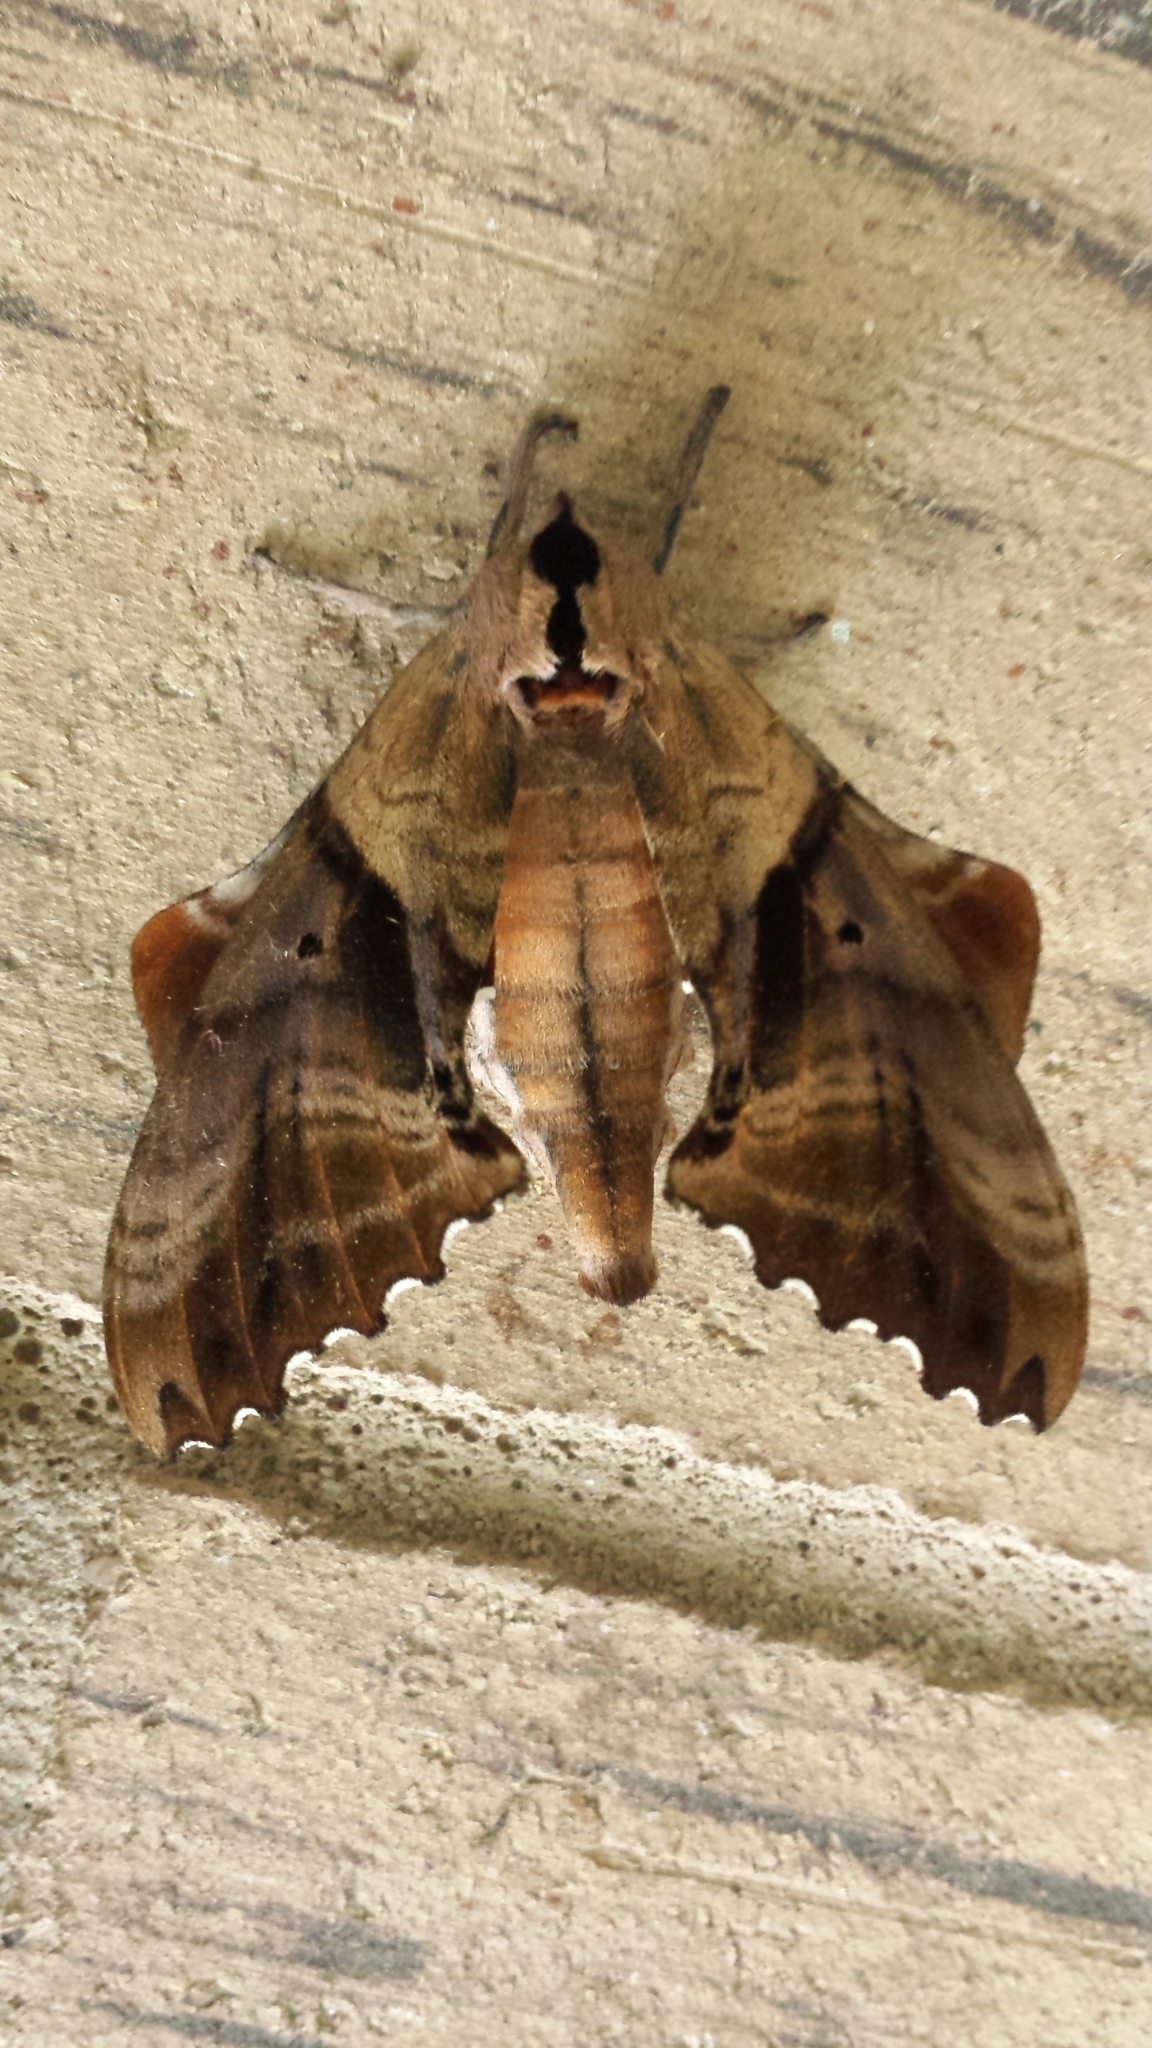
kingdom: Animalia
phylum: Arthropoda
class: Insecta
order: Lepidoptera
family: Sphingidae
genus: Paonias
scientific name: Paonias excaecata
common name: Blind-eyed sphinx
